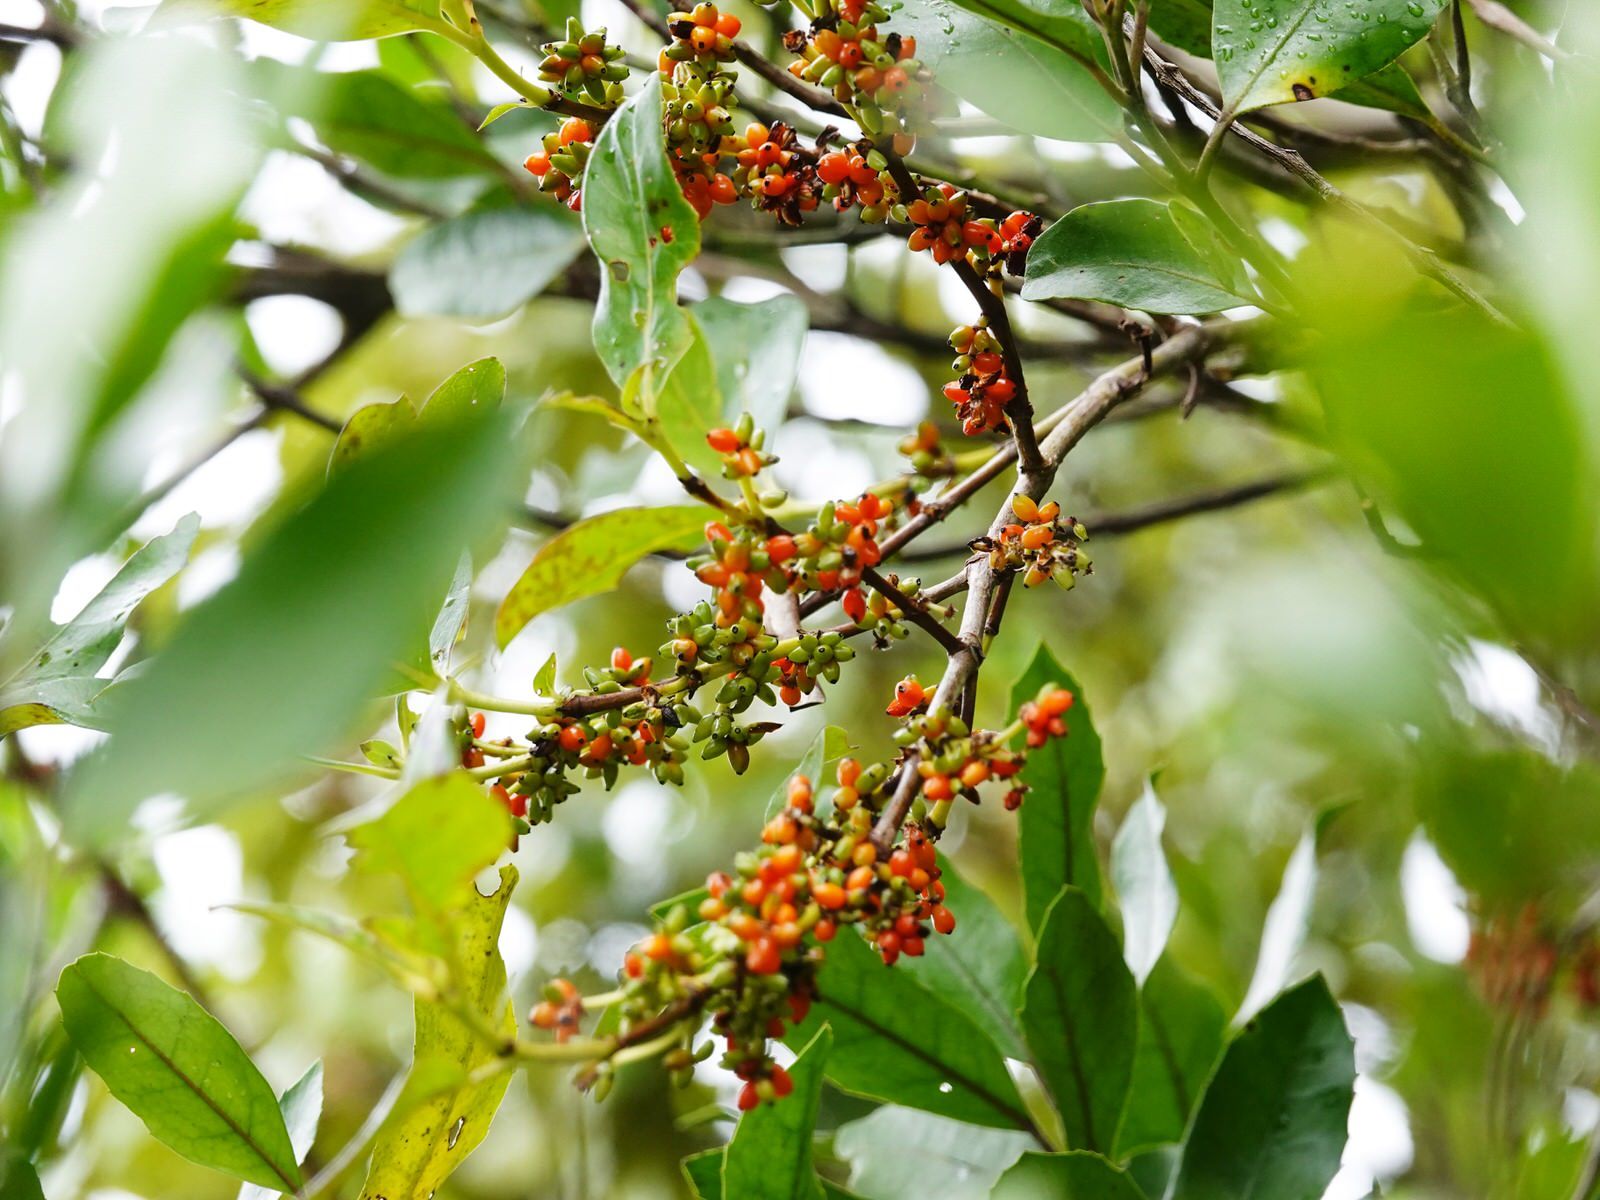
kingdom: Plantae
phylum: Tracheophyta
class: Magnoliopsida
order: Gentianales
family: Rubiaceae
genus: Coprosma
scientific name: Coprosma robusta
